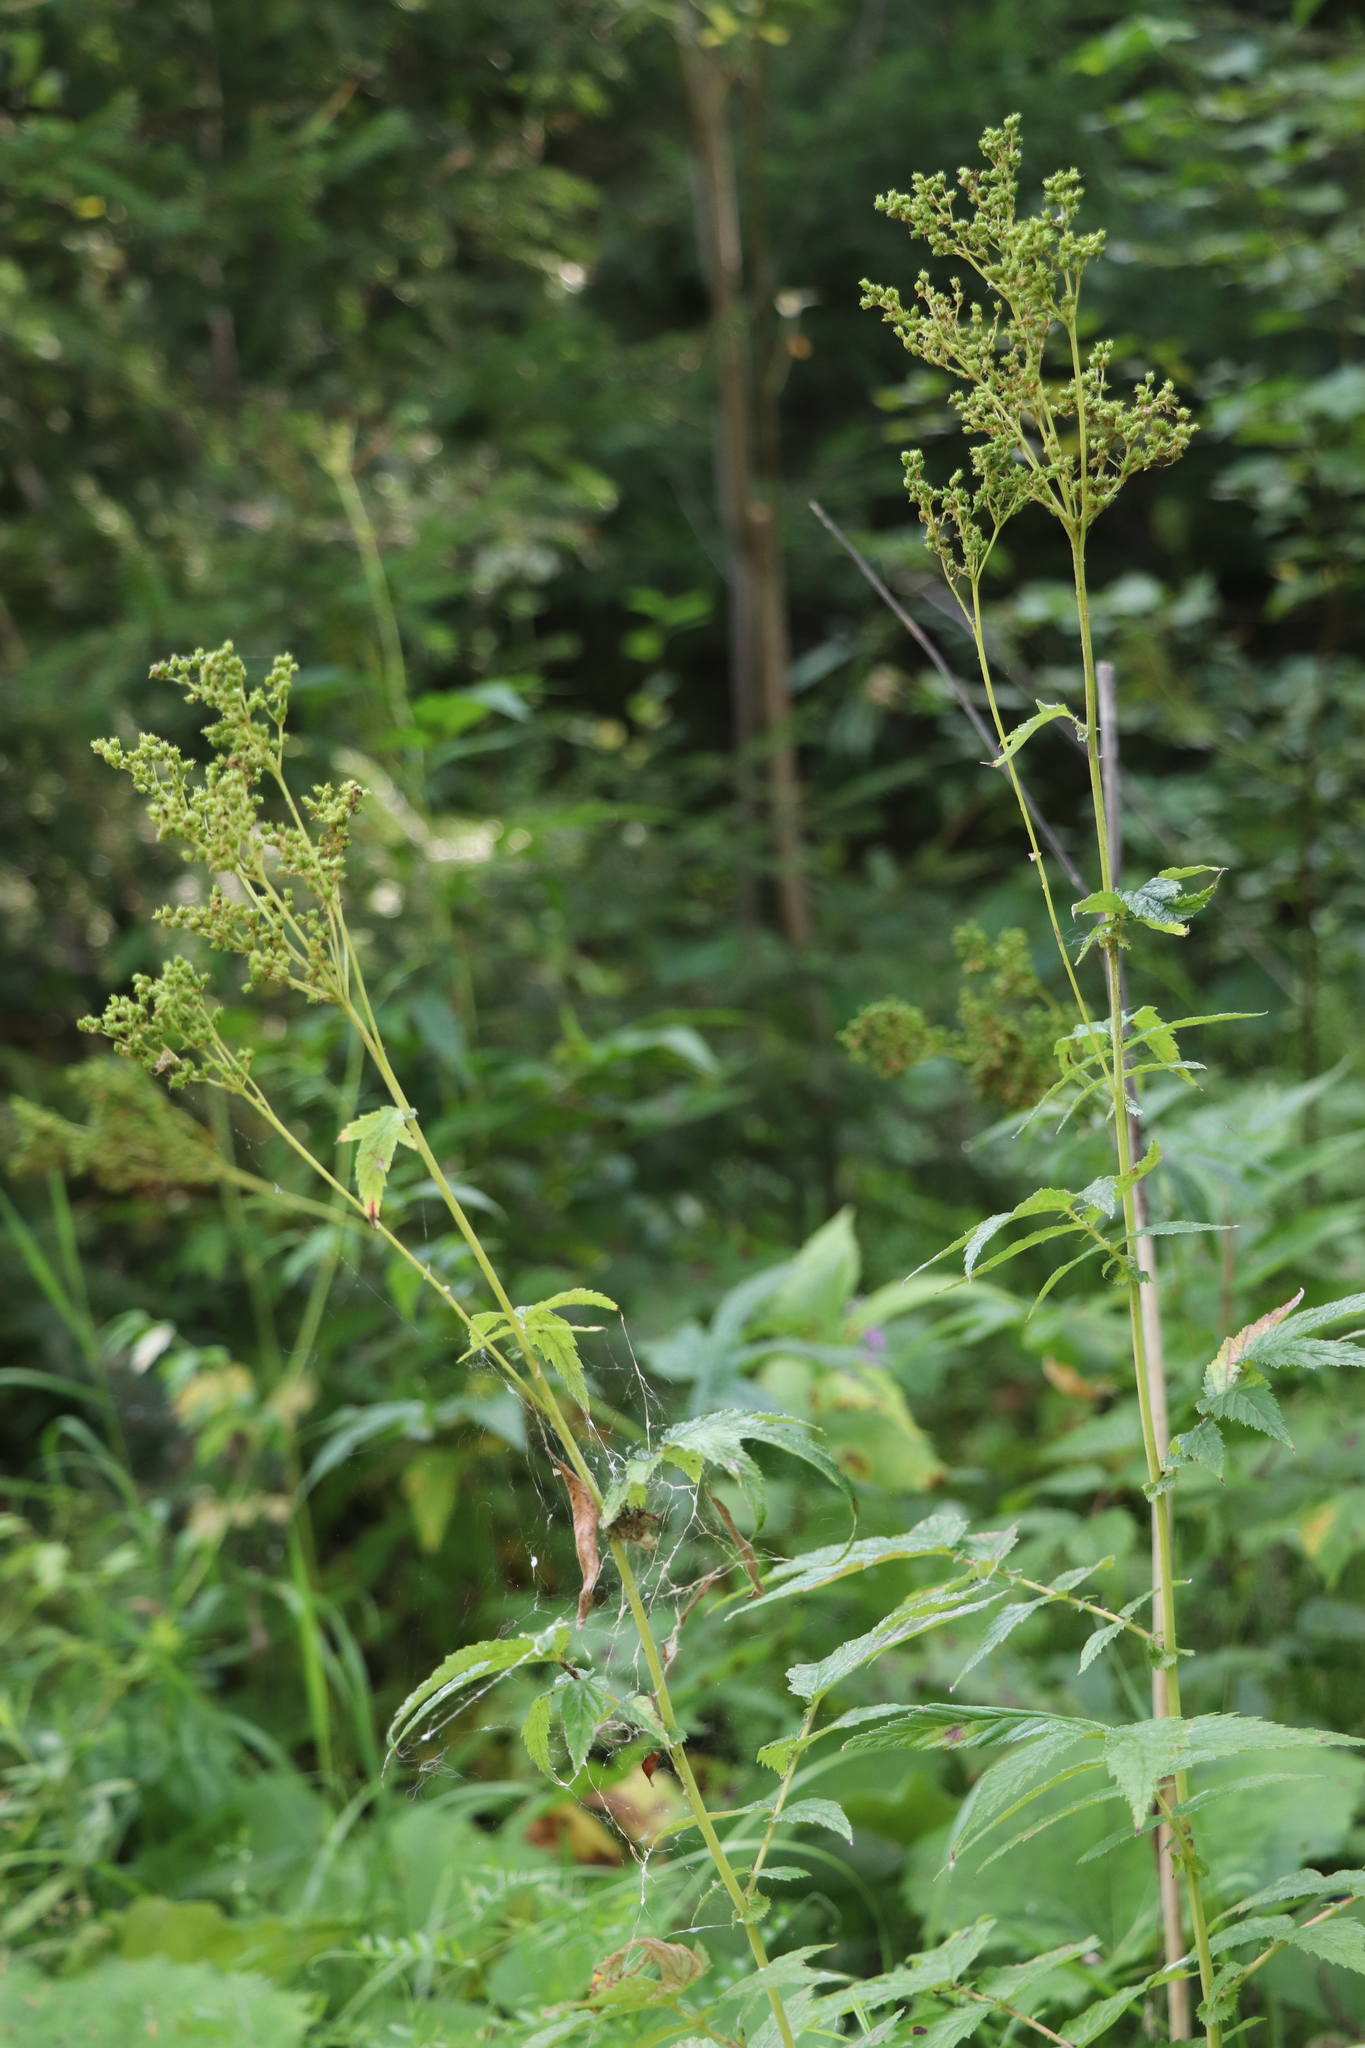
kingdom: Plantae
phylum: Tracheophyta
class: Magnoliopsida
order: Rosales
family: Rosaceae
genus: Filipendula
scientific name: Filipendula ulmaria
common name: Meadowsweet
